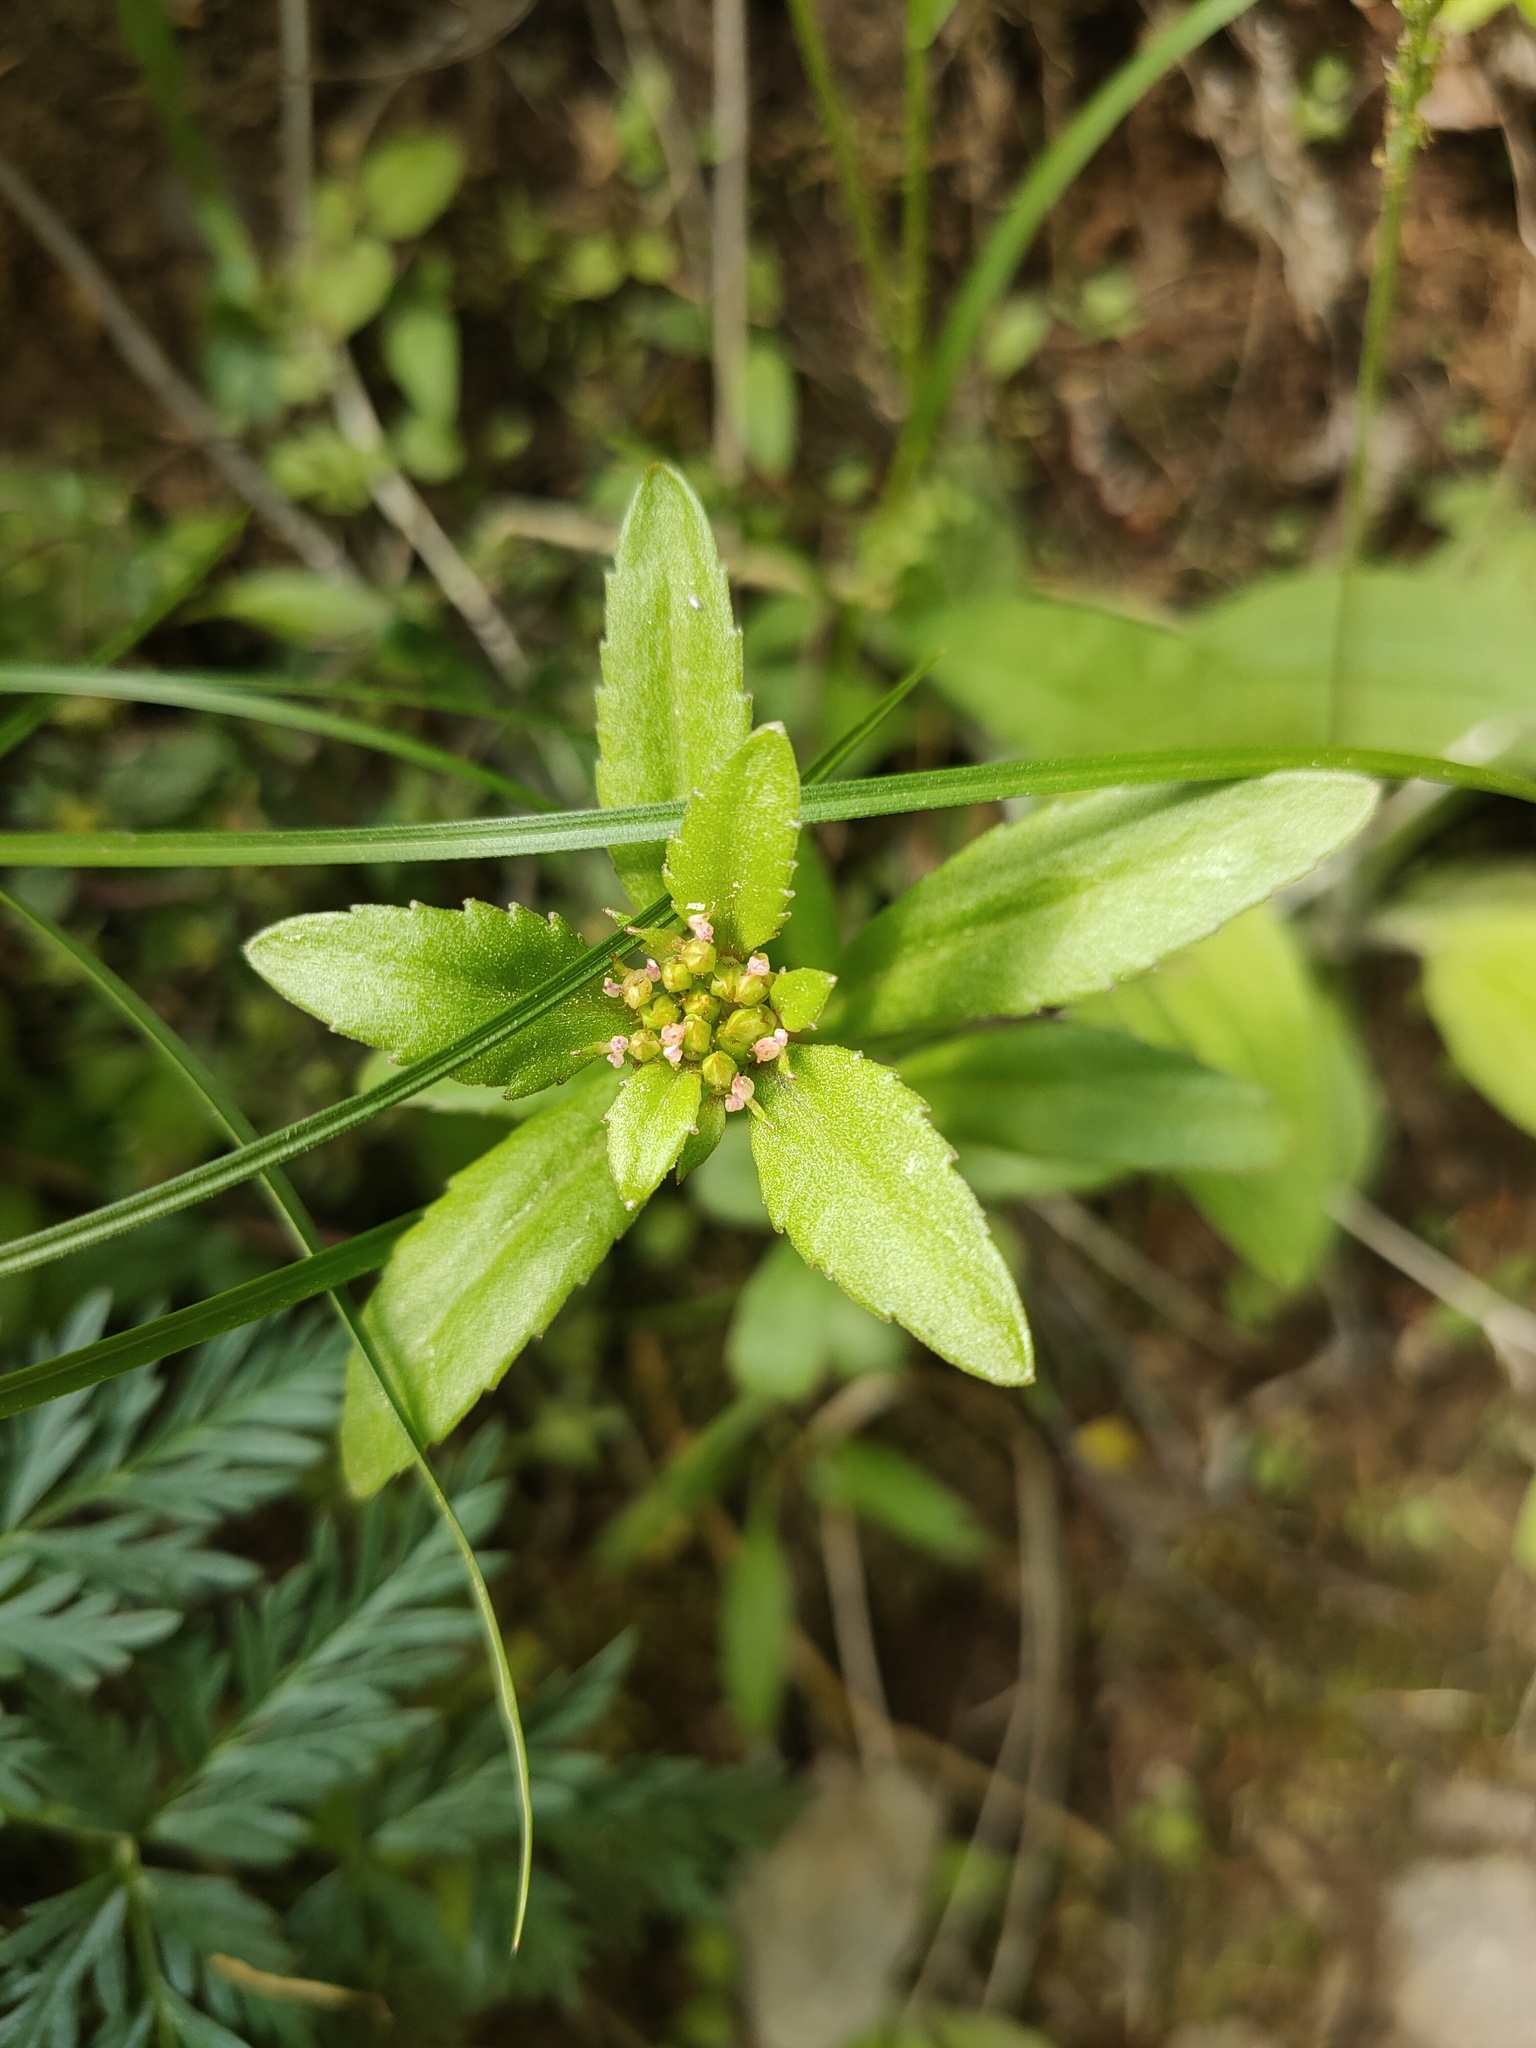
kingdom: Plantae
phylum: Tracheophyta
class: Magnoliopsida
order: Saxifragales
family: Crassulaceae
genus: Phedimus
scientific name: Phedimus aizoon
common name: Orpin aizoon
